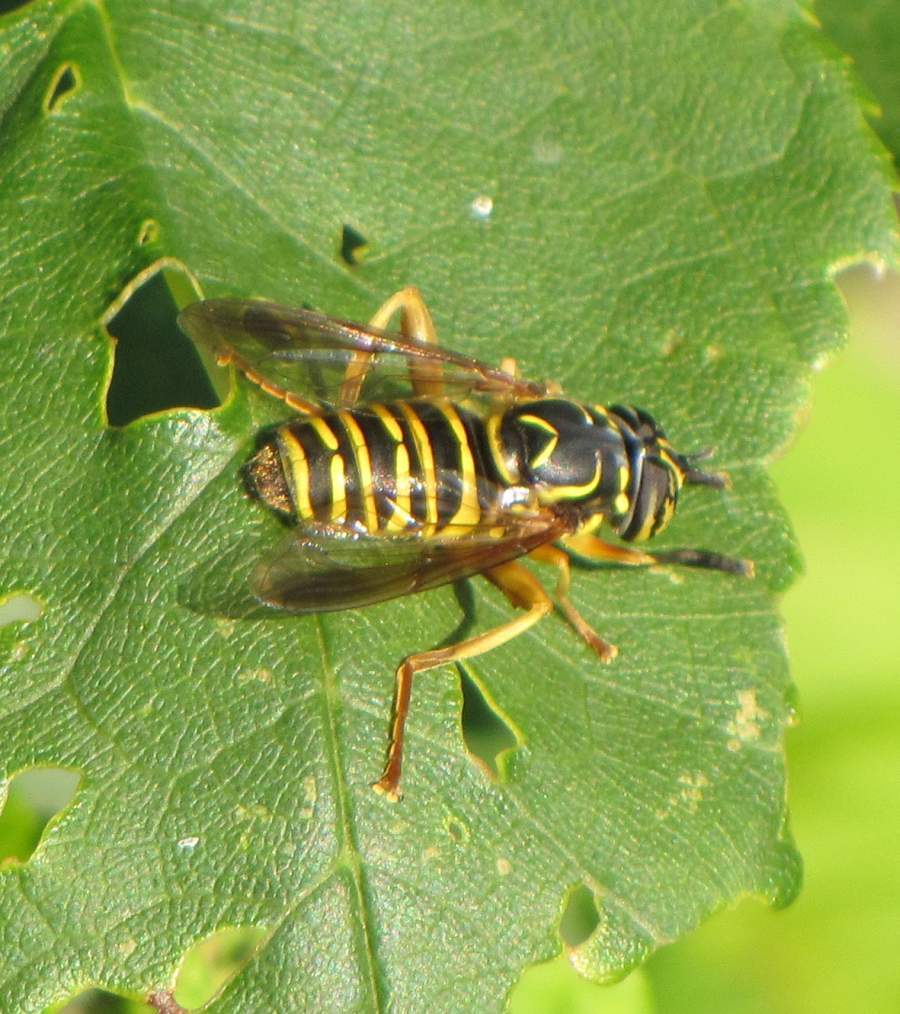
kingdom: Animalia
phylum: Arthropoda
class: Insecta
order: Diptera
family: Syrphidae
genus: Spilomyia
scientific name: Spilomyia longicornis
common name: Eastern hornet fly
